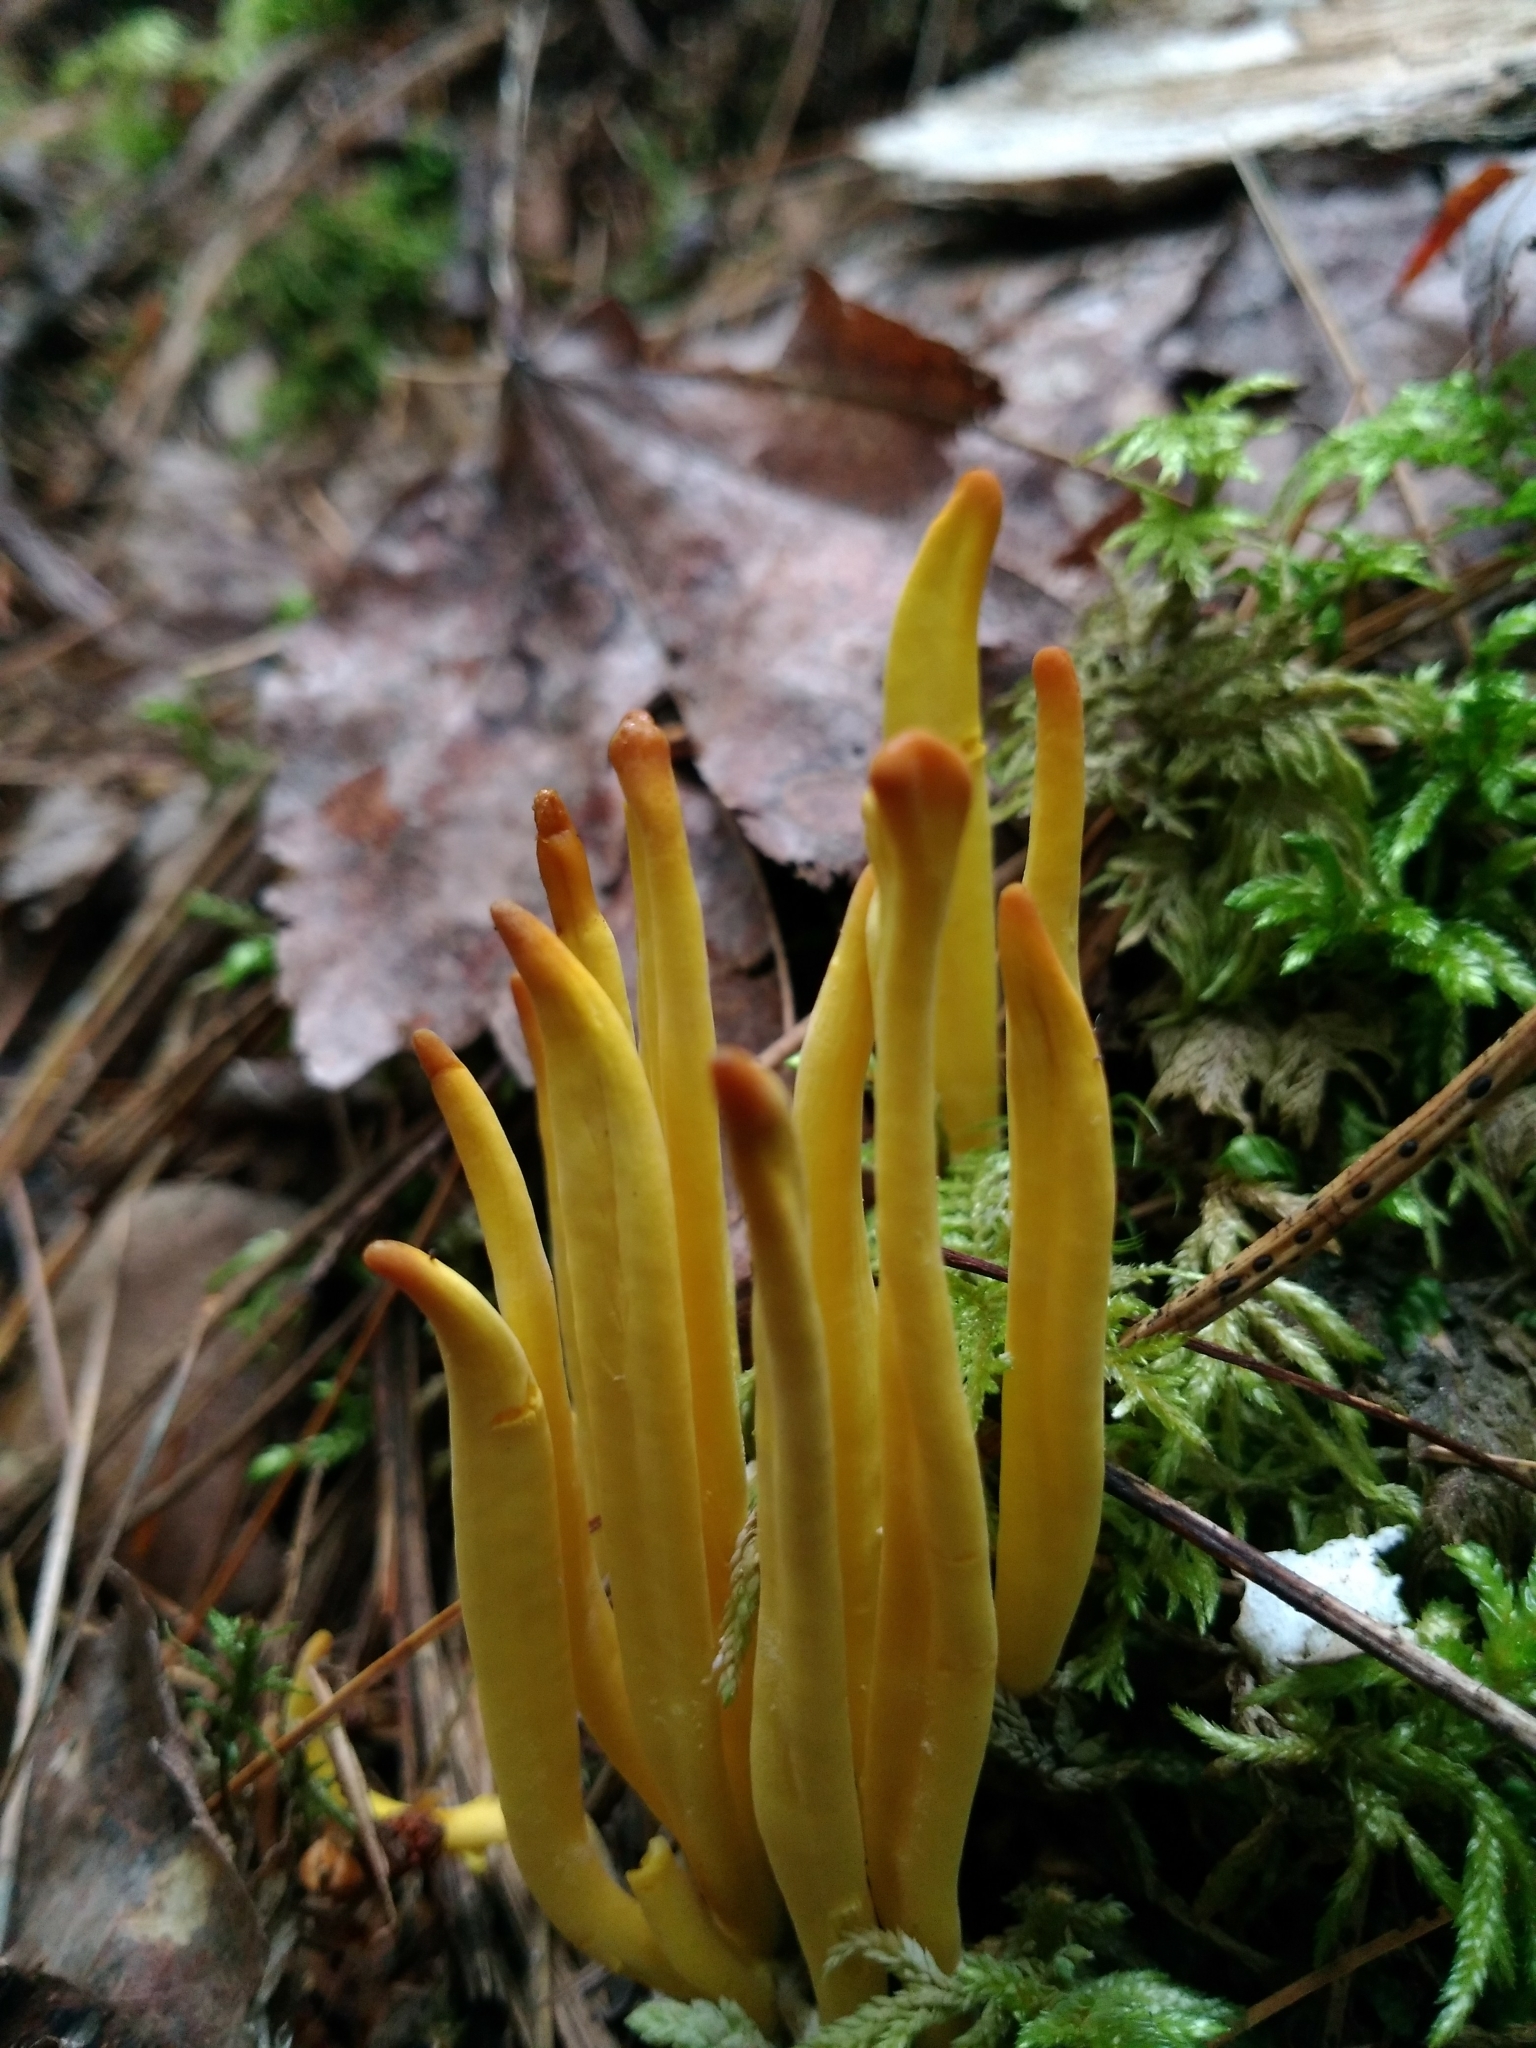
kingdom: Fungi
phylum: Basidiomycota
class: Agaricomycetes
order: Agaricales
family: Clavariaceae
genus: Clavulinopsis
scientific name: Clavulinopsis fusiformis
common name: Golden spindles
